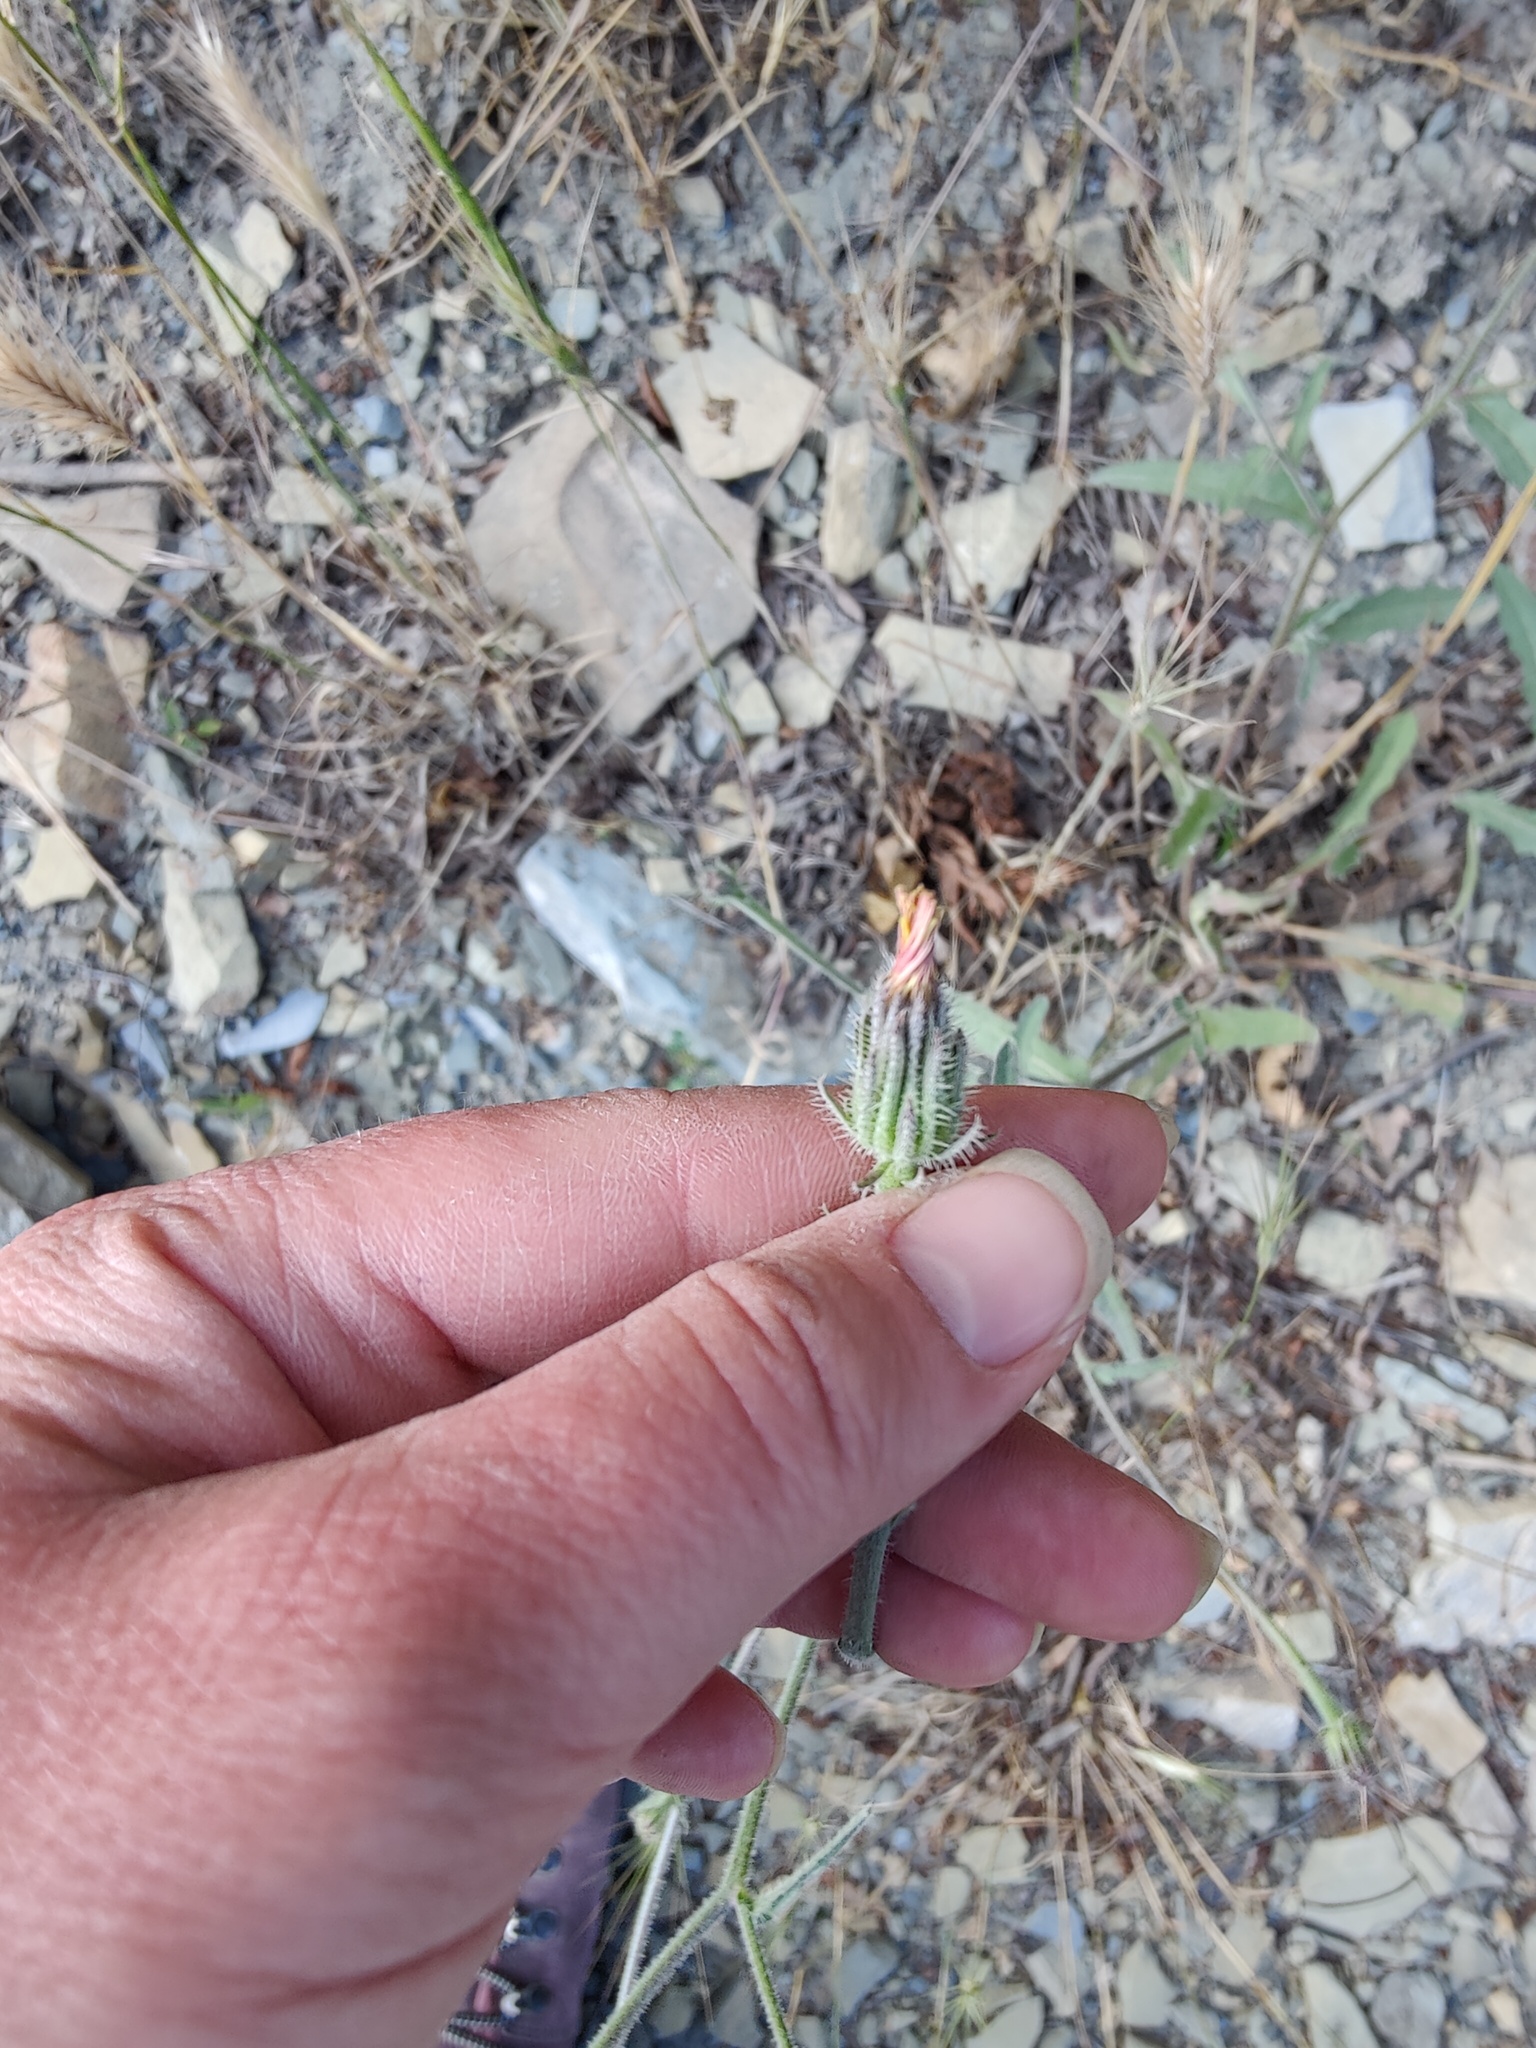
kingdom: Plantae
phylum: Tracheophyta
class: Magnoliopsida
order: Asterales
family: Asteraceae
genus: Picris
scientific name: Picris pauciflora
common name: Smallflower oxtongue
